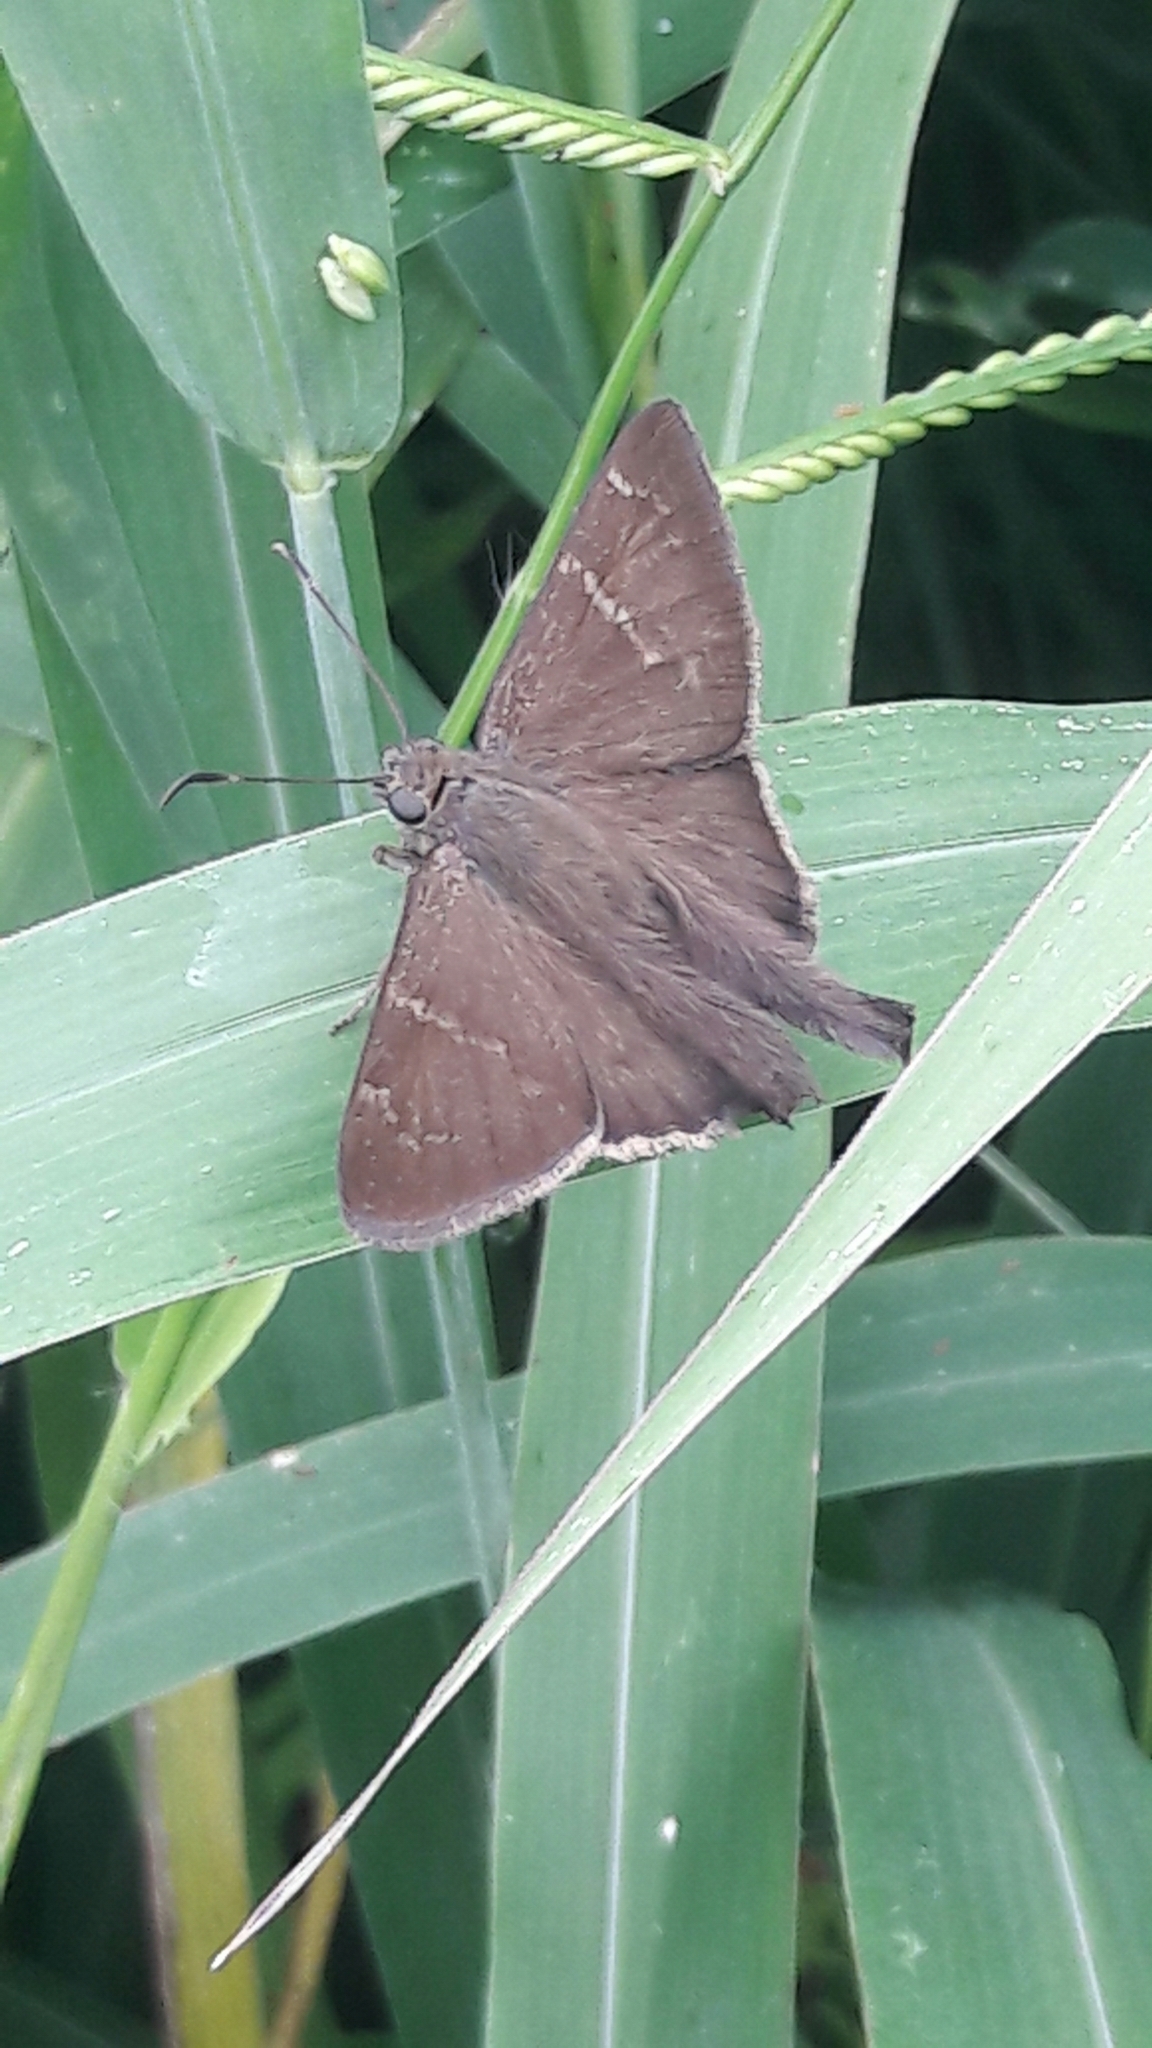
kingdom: Animalia
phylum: Arthropoda
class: Insecta
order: Lepidoptera
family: Hesperiidae
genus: Urbanus
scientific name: Urbanus procne
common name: Brown longtail
